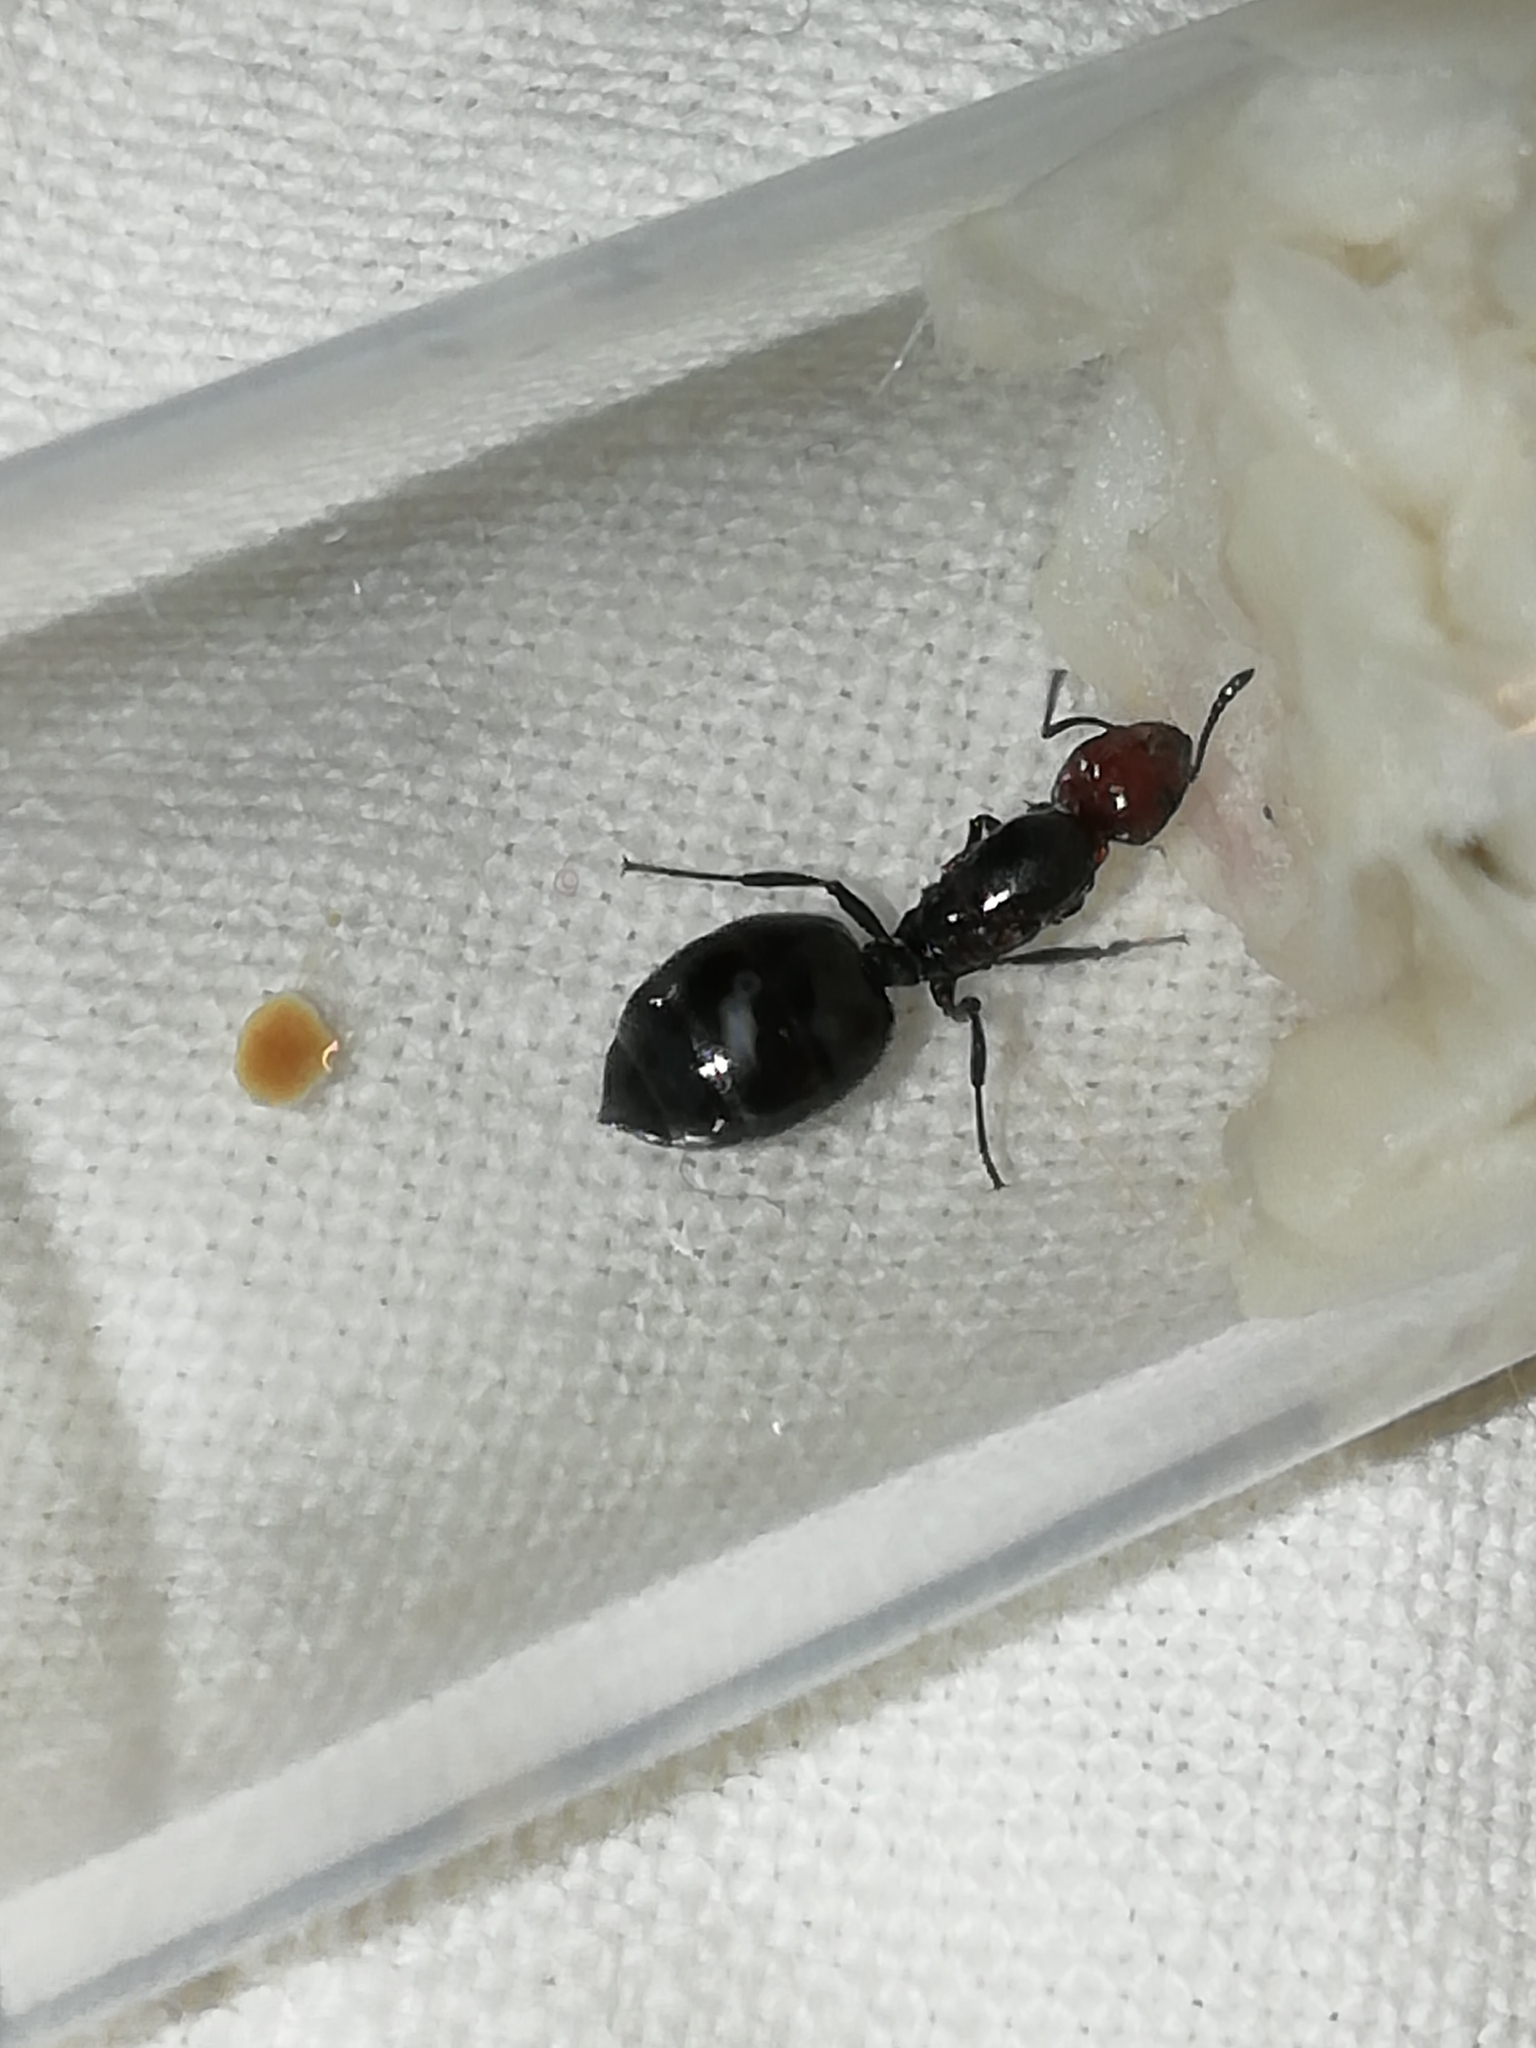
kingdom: Animalia
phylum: Arthropoda
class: Insecta
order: Hymenoptera
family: Formicidae
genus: Crematogaster
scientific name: Crematogaster scutellaris
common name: Fourmi du liège
